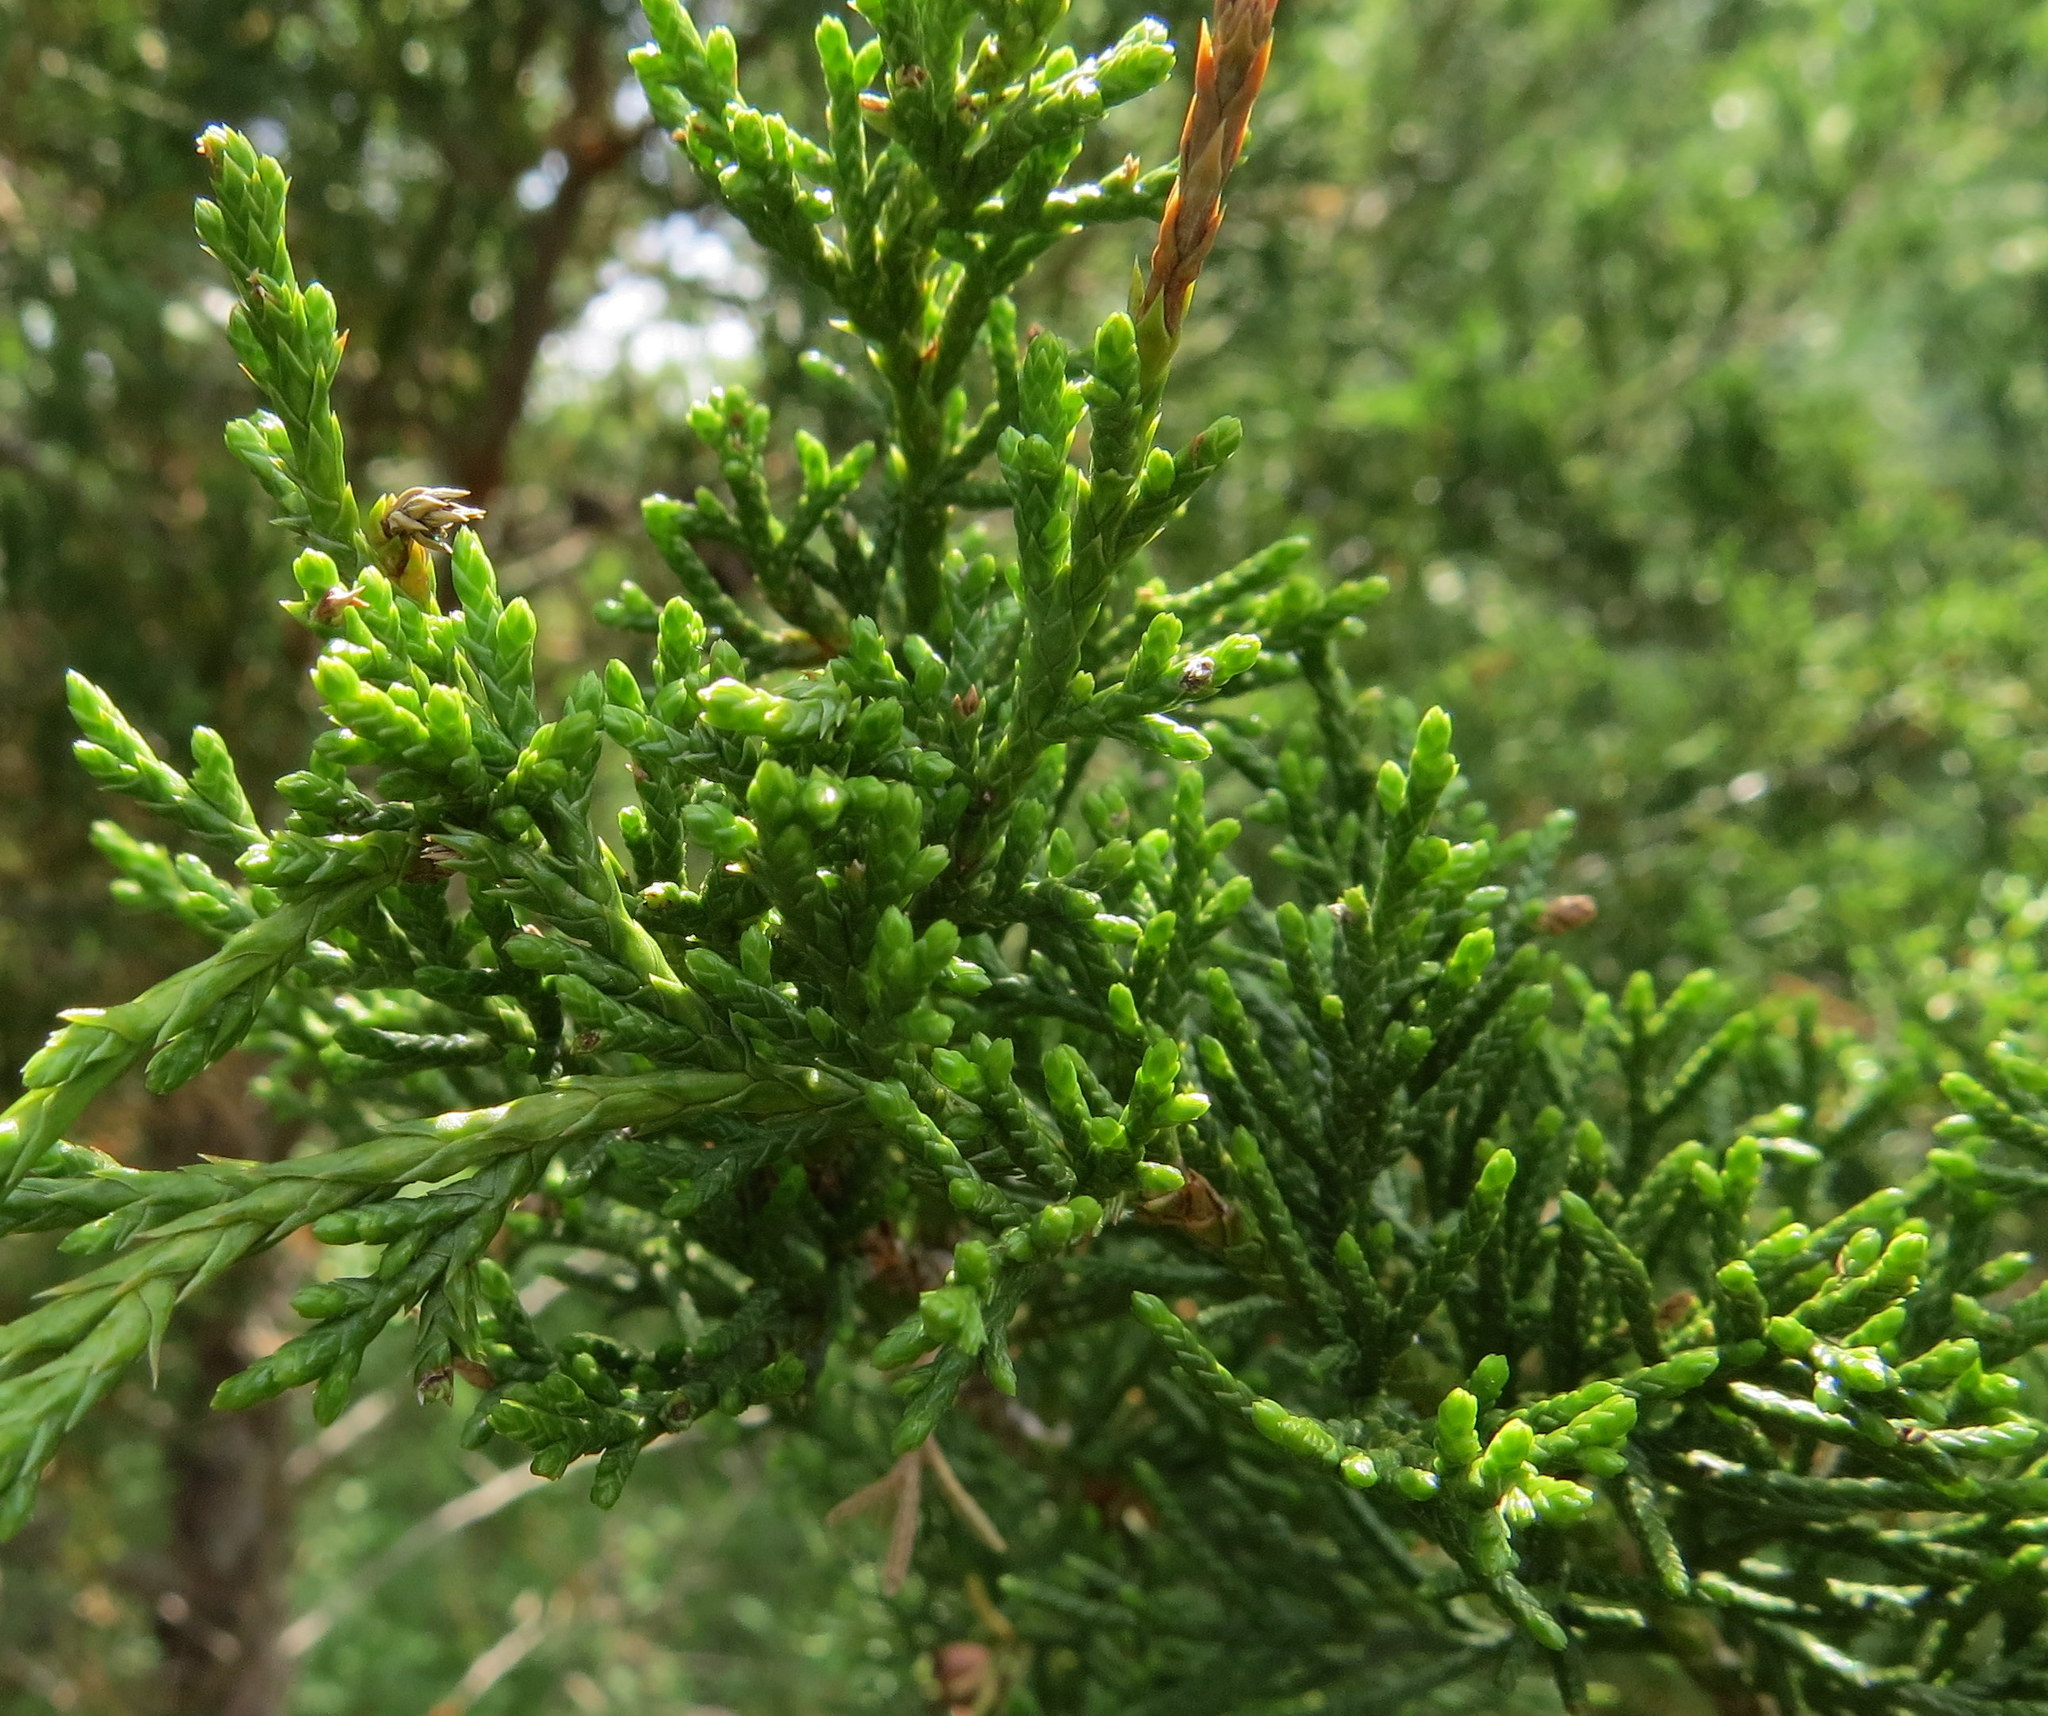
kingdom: Plantae
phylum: Tracheophyta
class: Pinopsida
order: Pinales
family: Cupressaceae
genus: Juniperus
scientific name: Juniperus virginiana
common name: Red juniper
